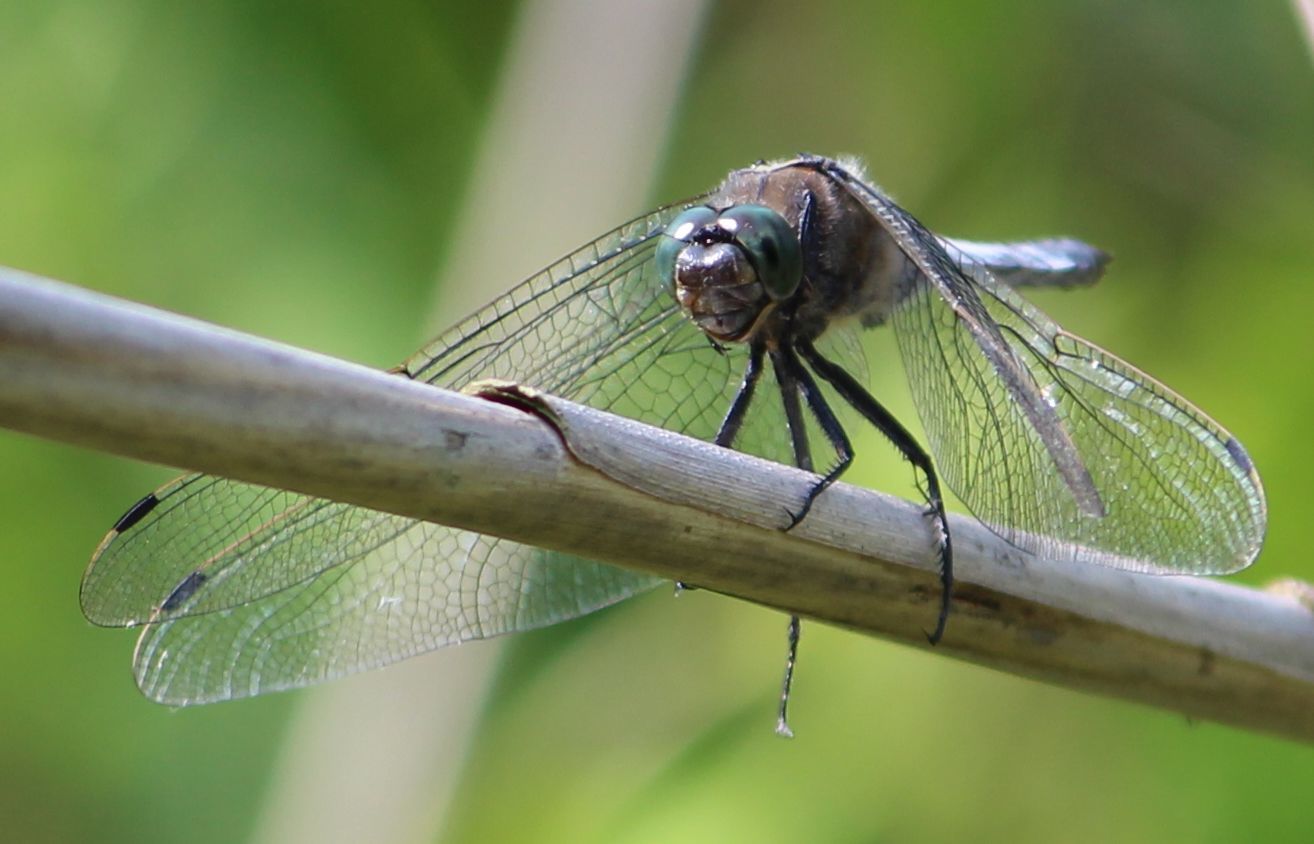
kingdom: Animalia
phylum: Arthropoda
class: Insecta
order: Odonata
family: Libellulidae
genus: Orthetrum
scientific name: Orthetrum cancellatum
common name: Black-tailed skimmer
